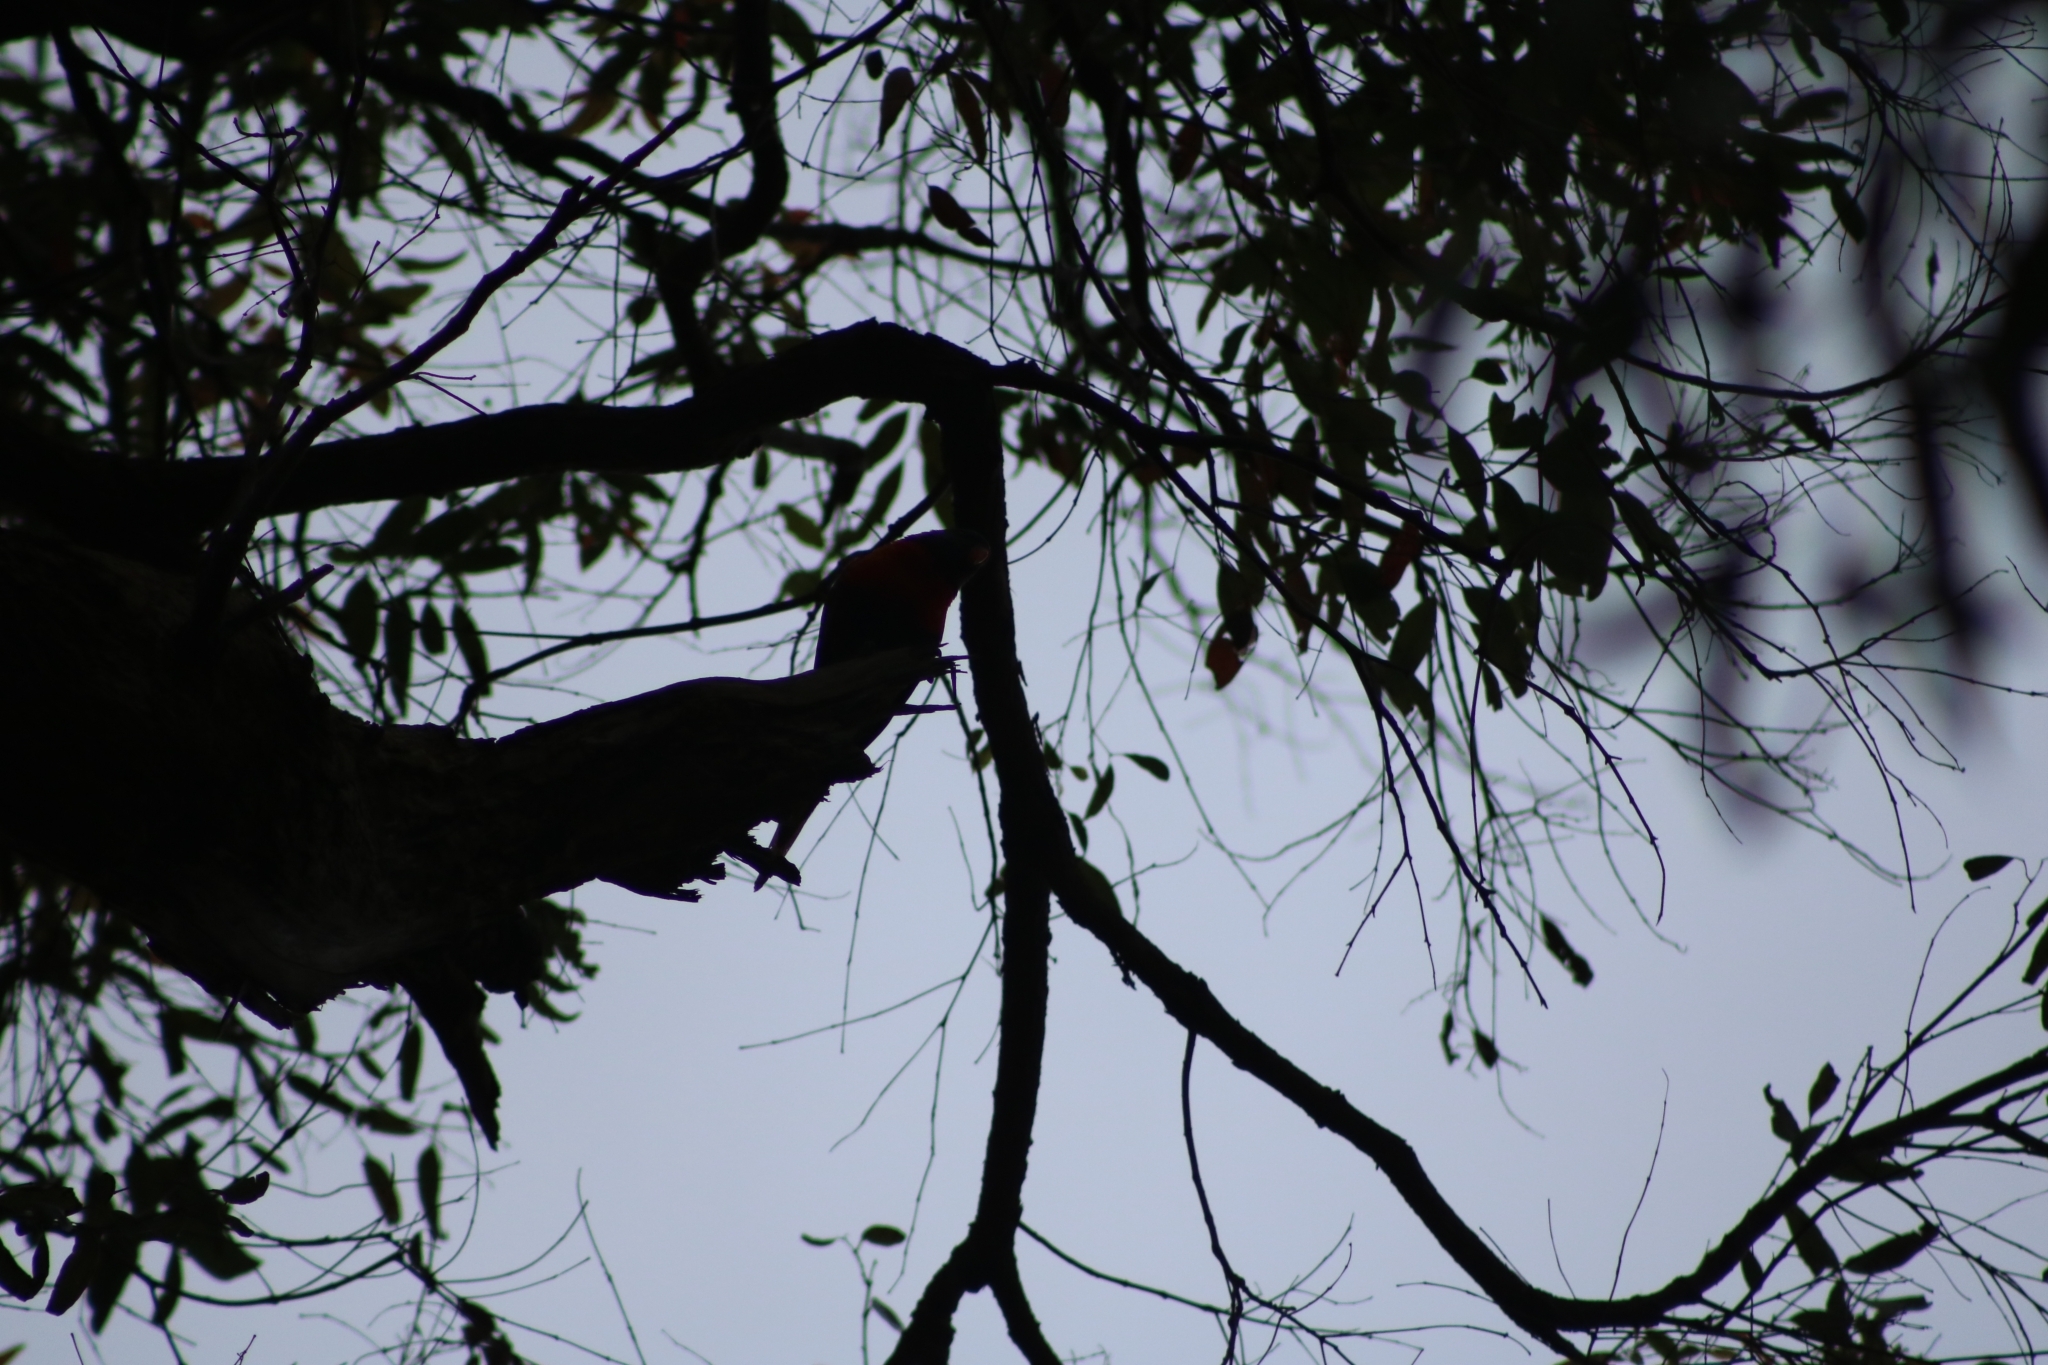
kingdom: Animalia
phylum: Chordata
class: Aves
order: Psittaciformes
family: Psittacidae
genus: Trichoglossus
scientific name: Trichoglossus haematodus
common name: Coconut lorikeet
